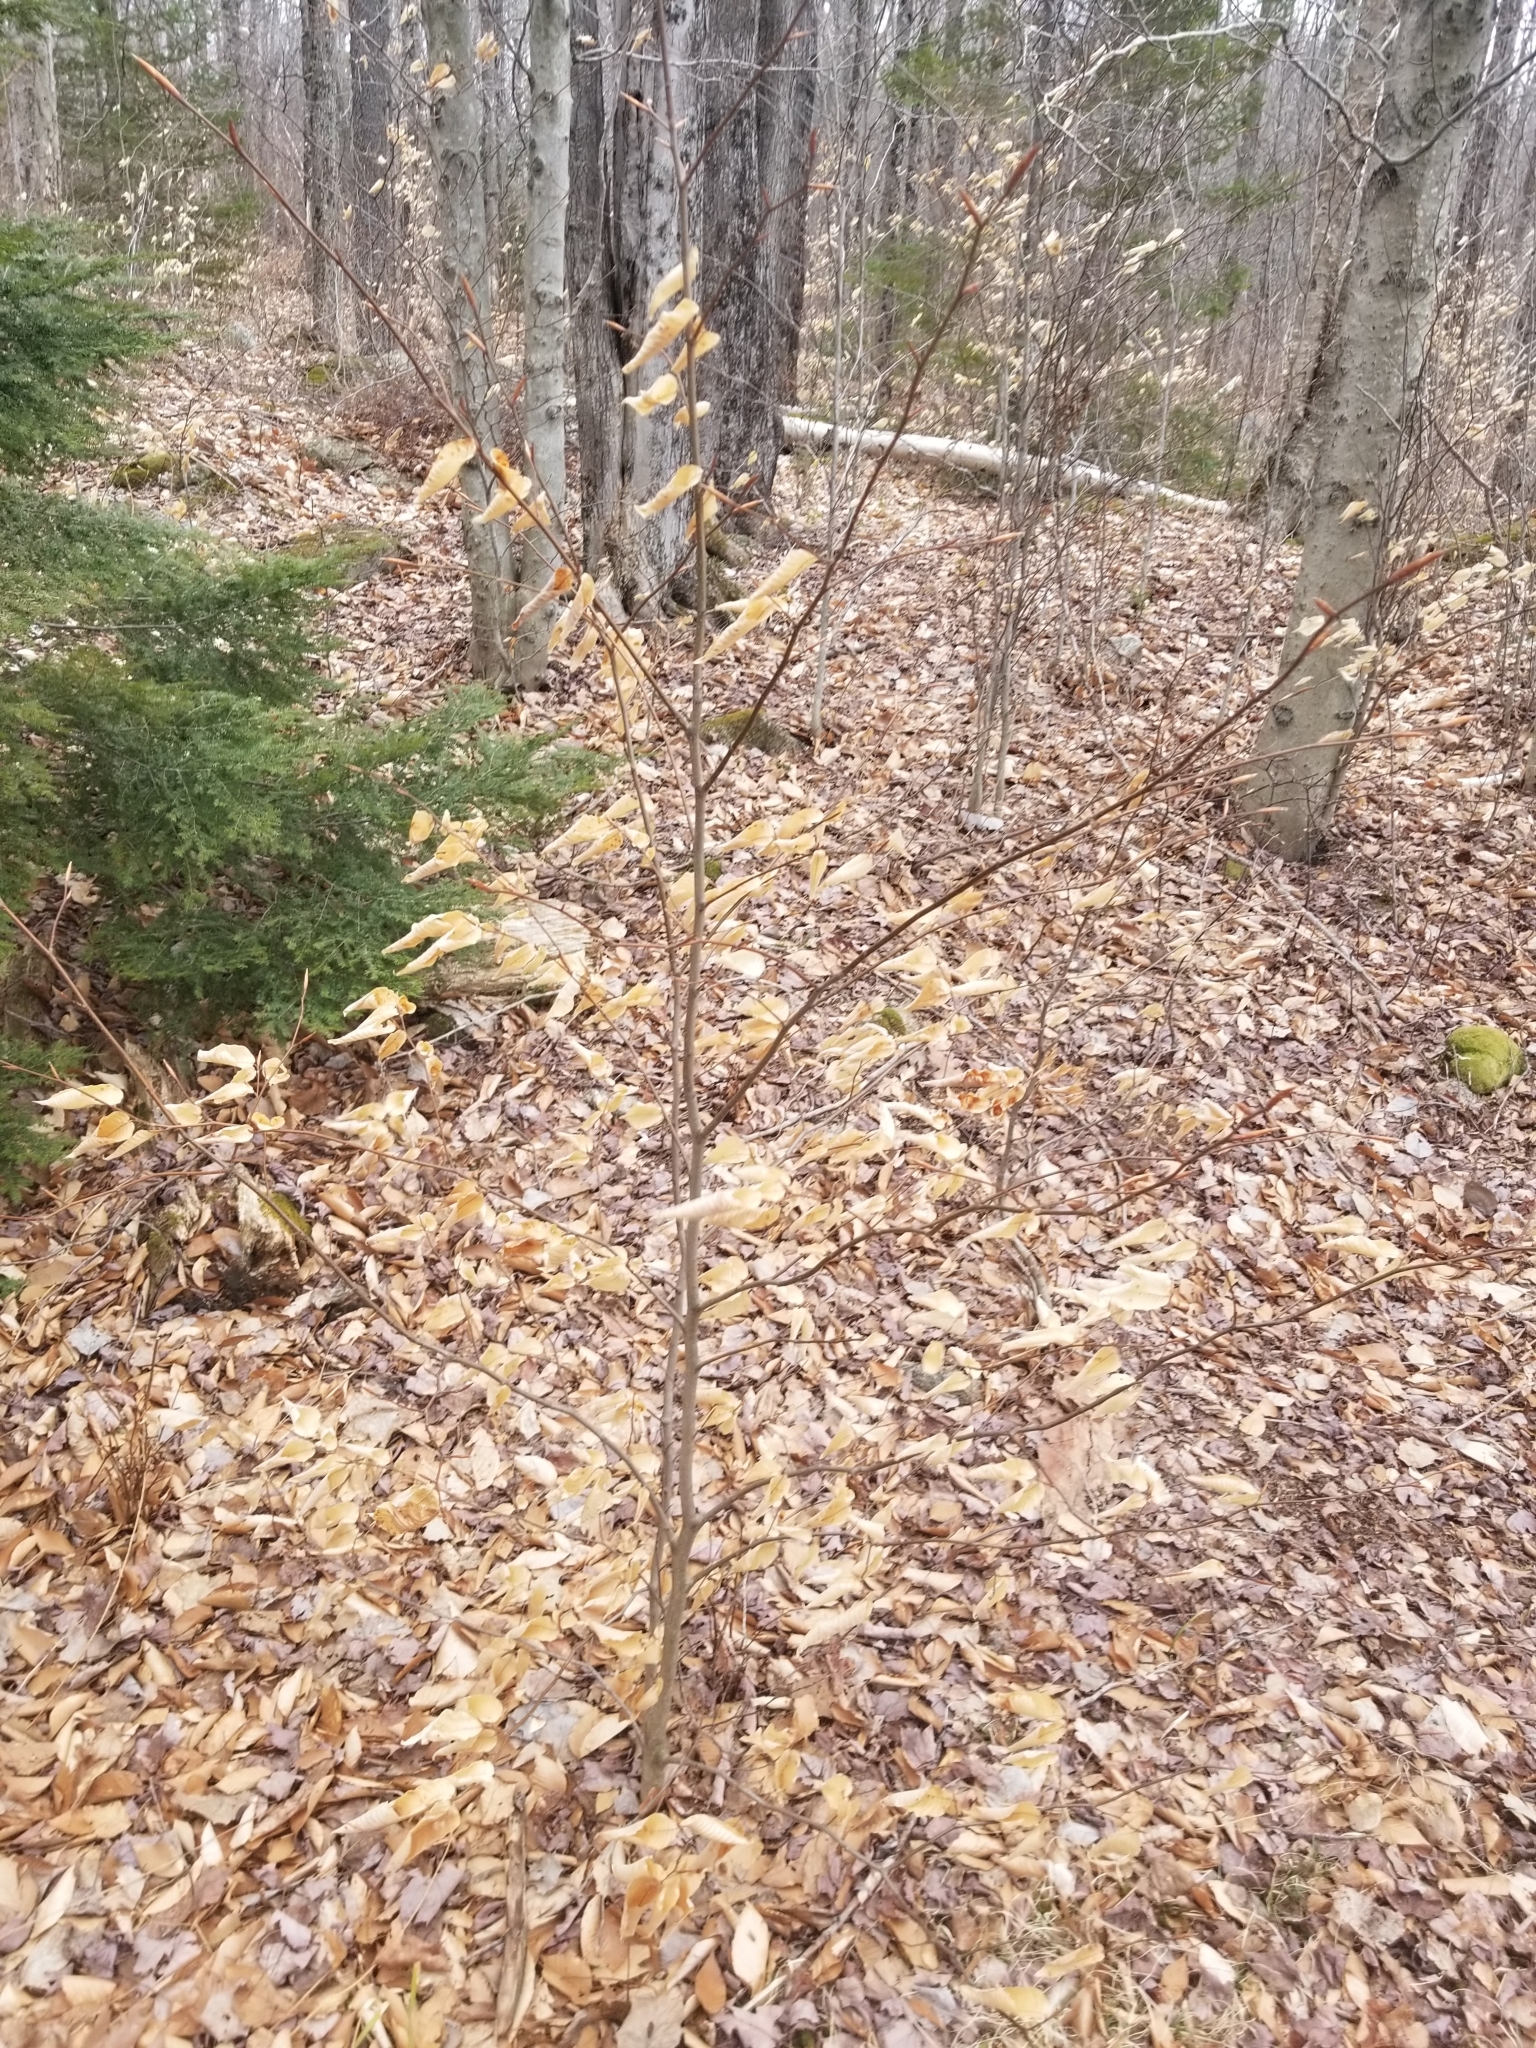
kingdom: Plantae
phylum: Tracheophyta
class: Magnoliopsida
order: Fagales
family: Fagaceae
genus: Fagus
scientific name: Fagus grandifolia
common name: American beech
